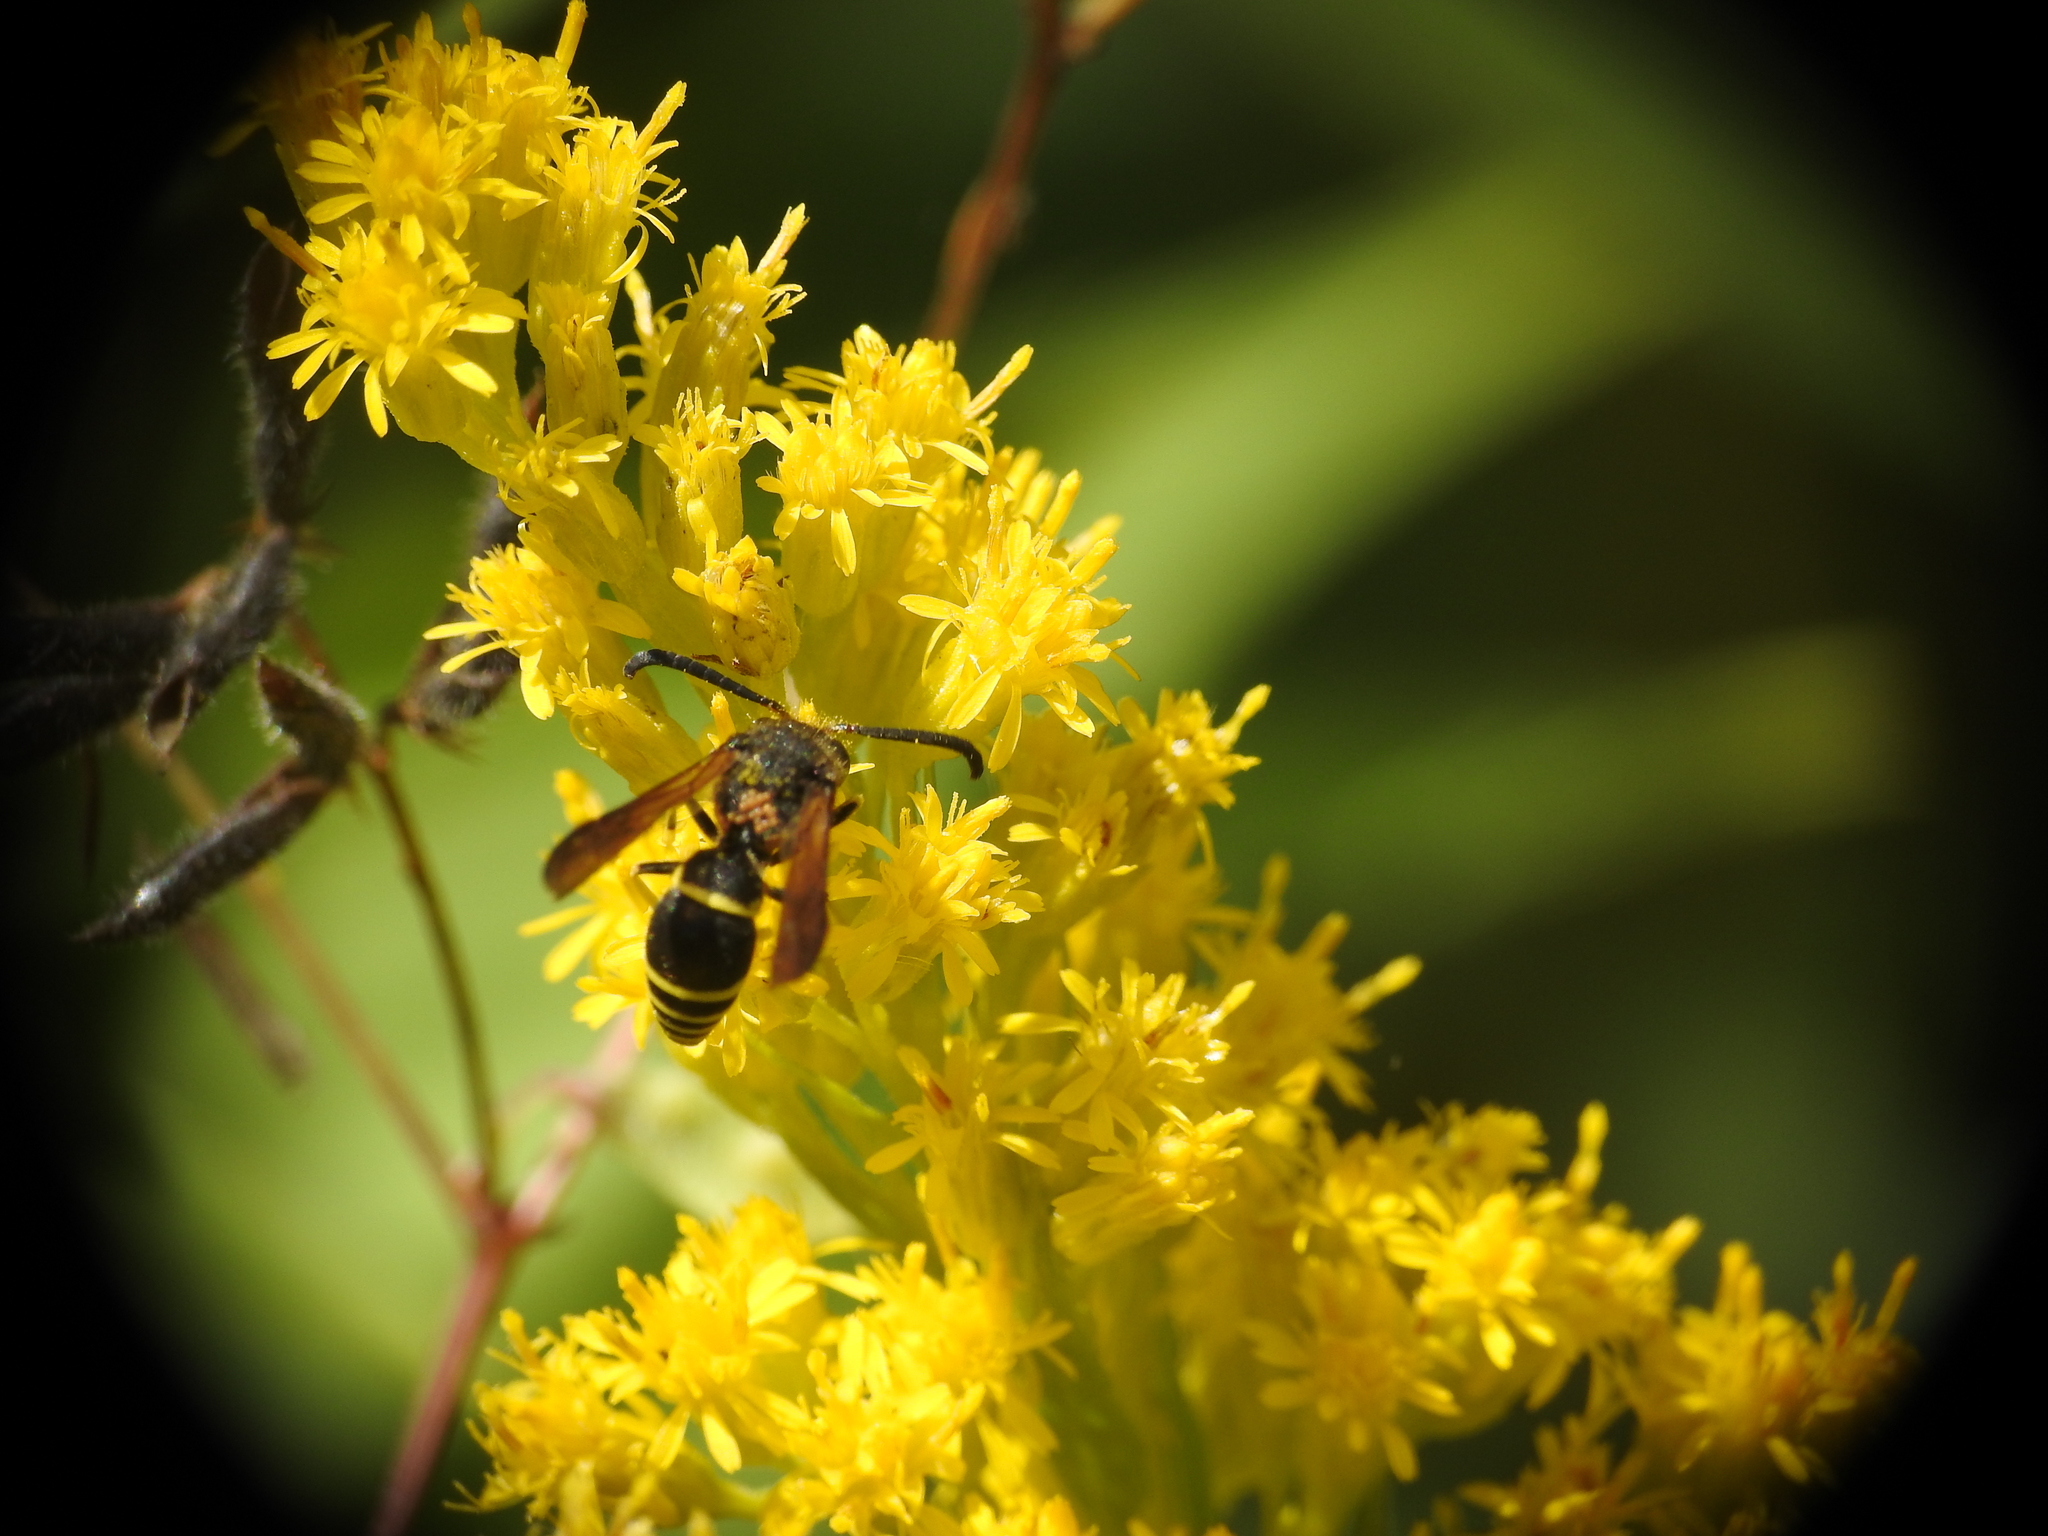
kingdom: Animalia
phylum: Arthropoda
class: Insecta
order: Hymenoptera
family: Vespidae
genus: Ancistrocerus
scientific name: Ancistrocerus
